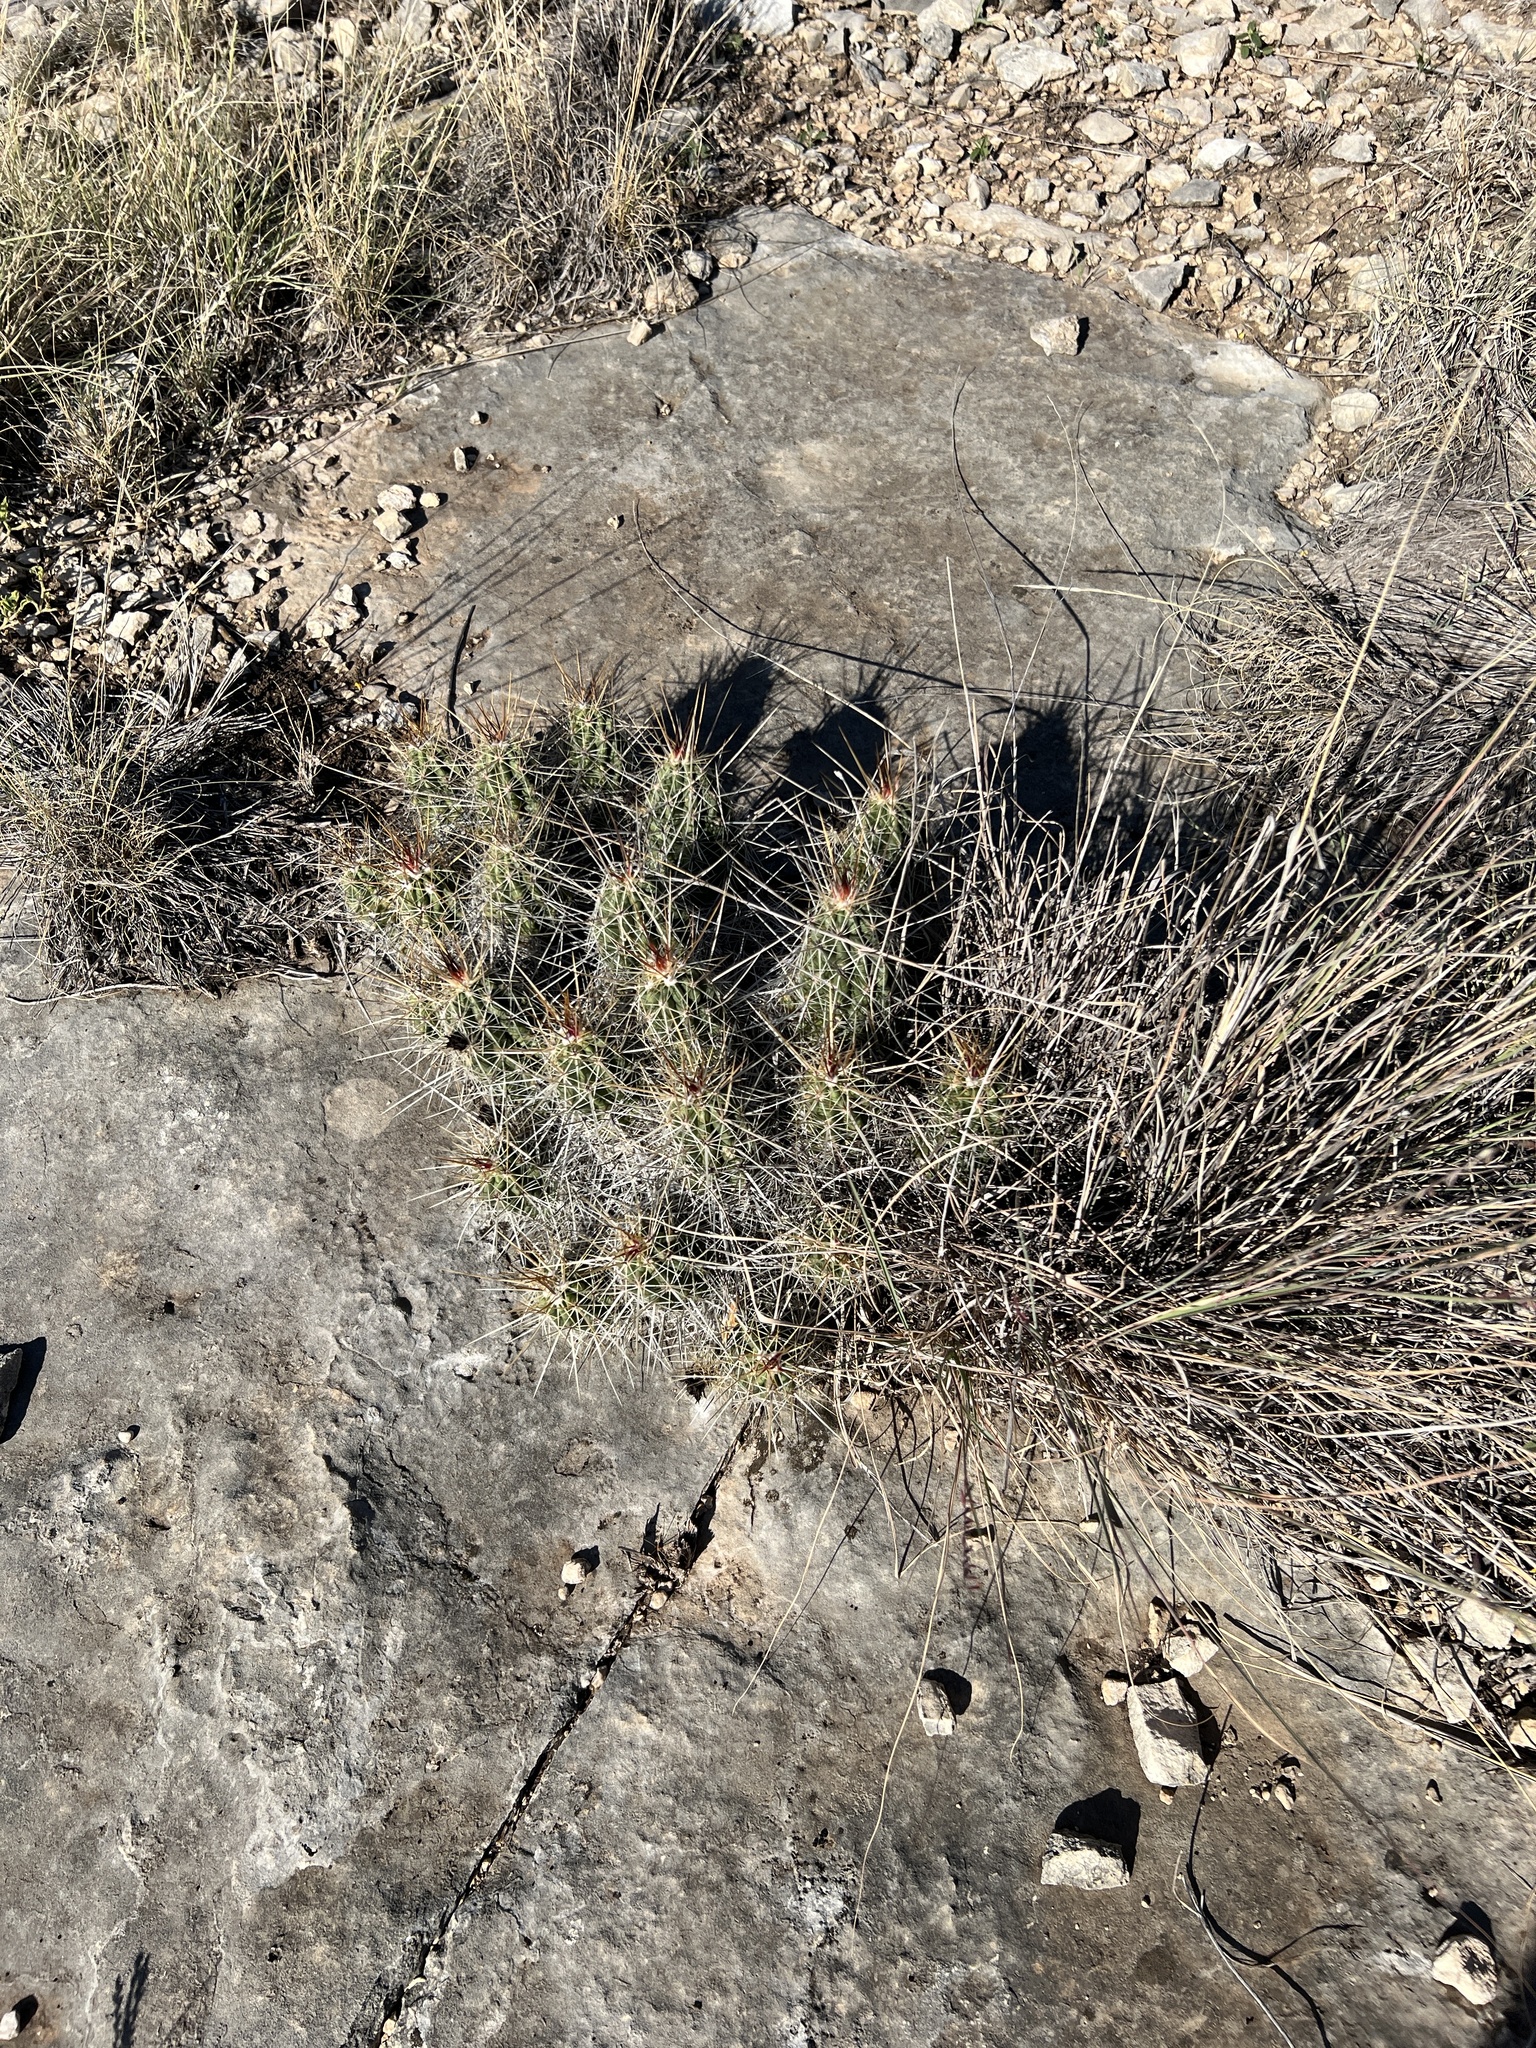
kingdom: Plantae
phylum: Tracheophyta
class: Magnoliopsida
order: Caryophyllales
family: Cactaceae
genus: Echinocereus
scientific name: Echinocereus enneacanthus
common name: Pitaya
